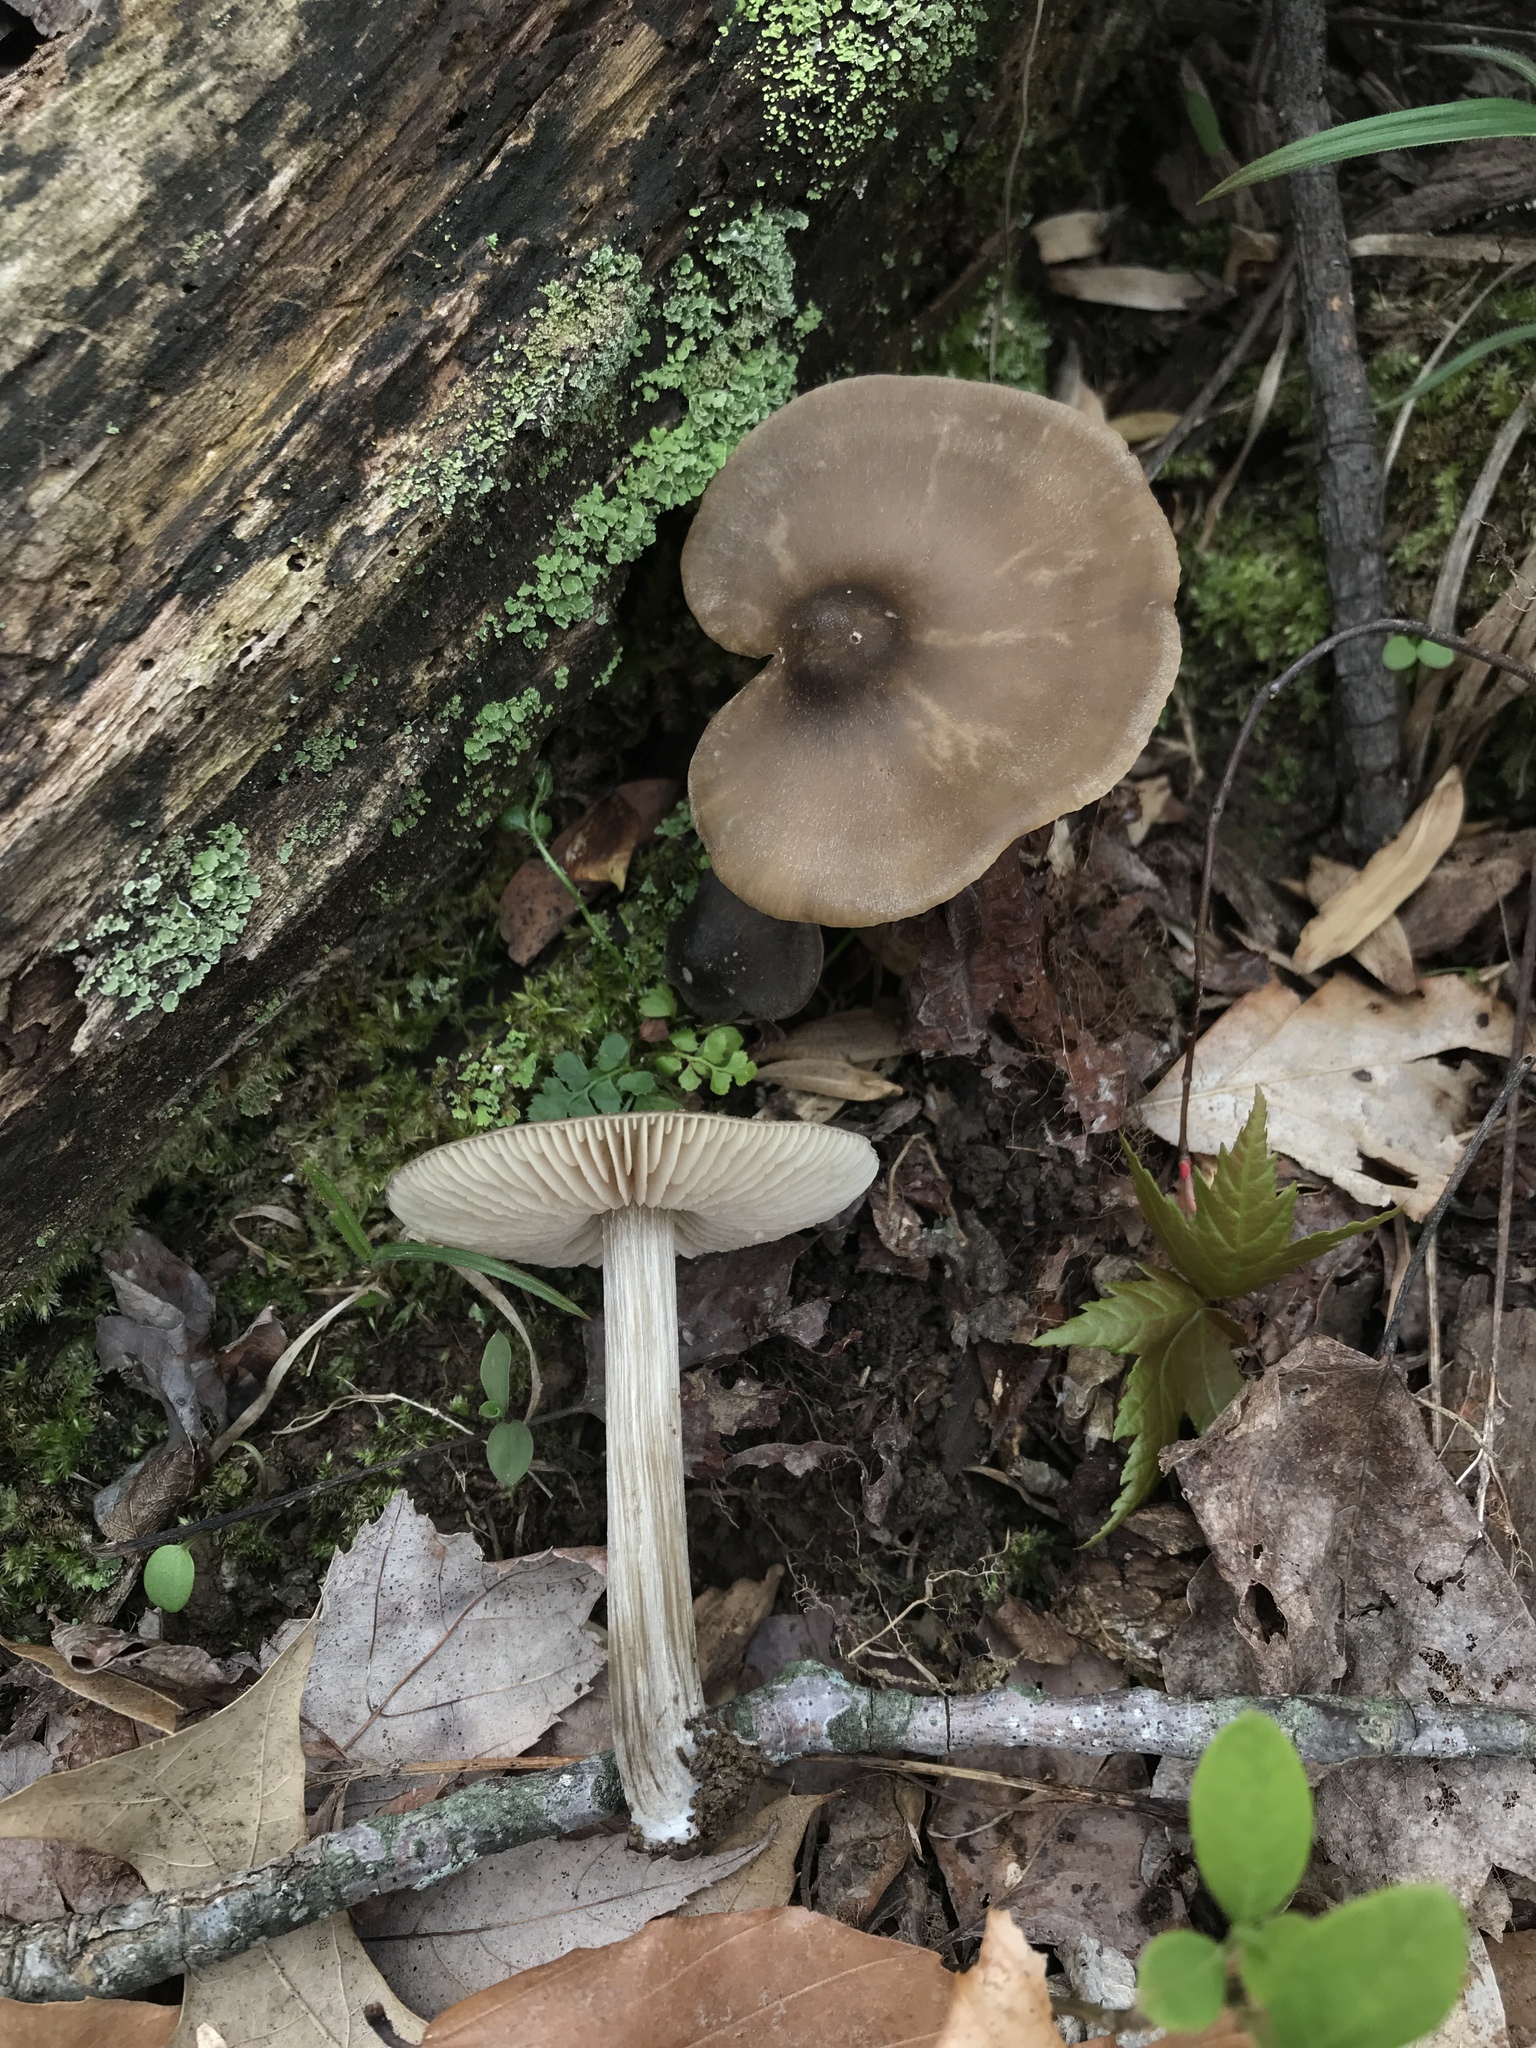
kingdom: Fungi
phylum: Basidiomycota
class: Agaricomycetes
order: Agaricales
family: Entolomataceae
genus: Entoloma
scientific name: Entoloma vernum
